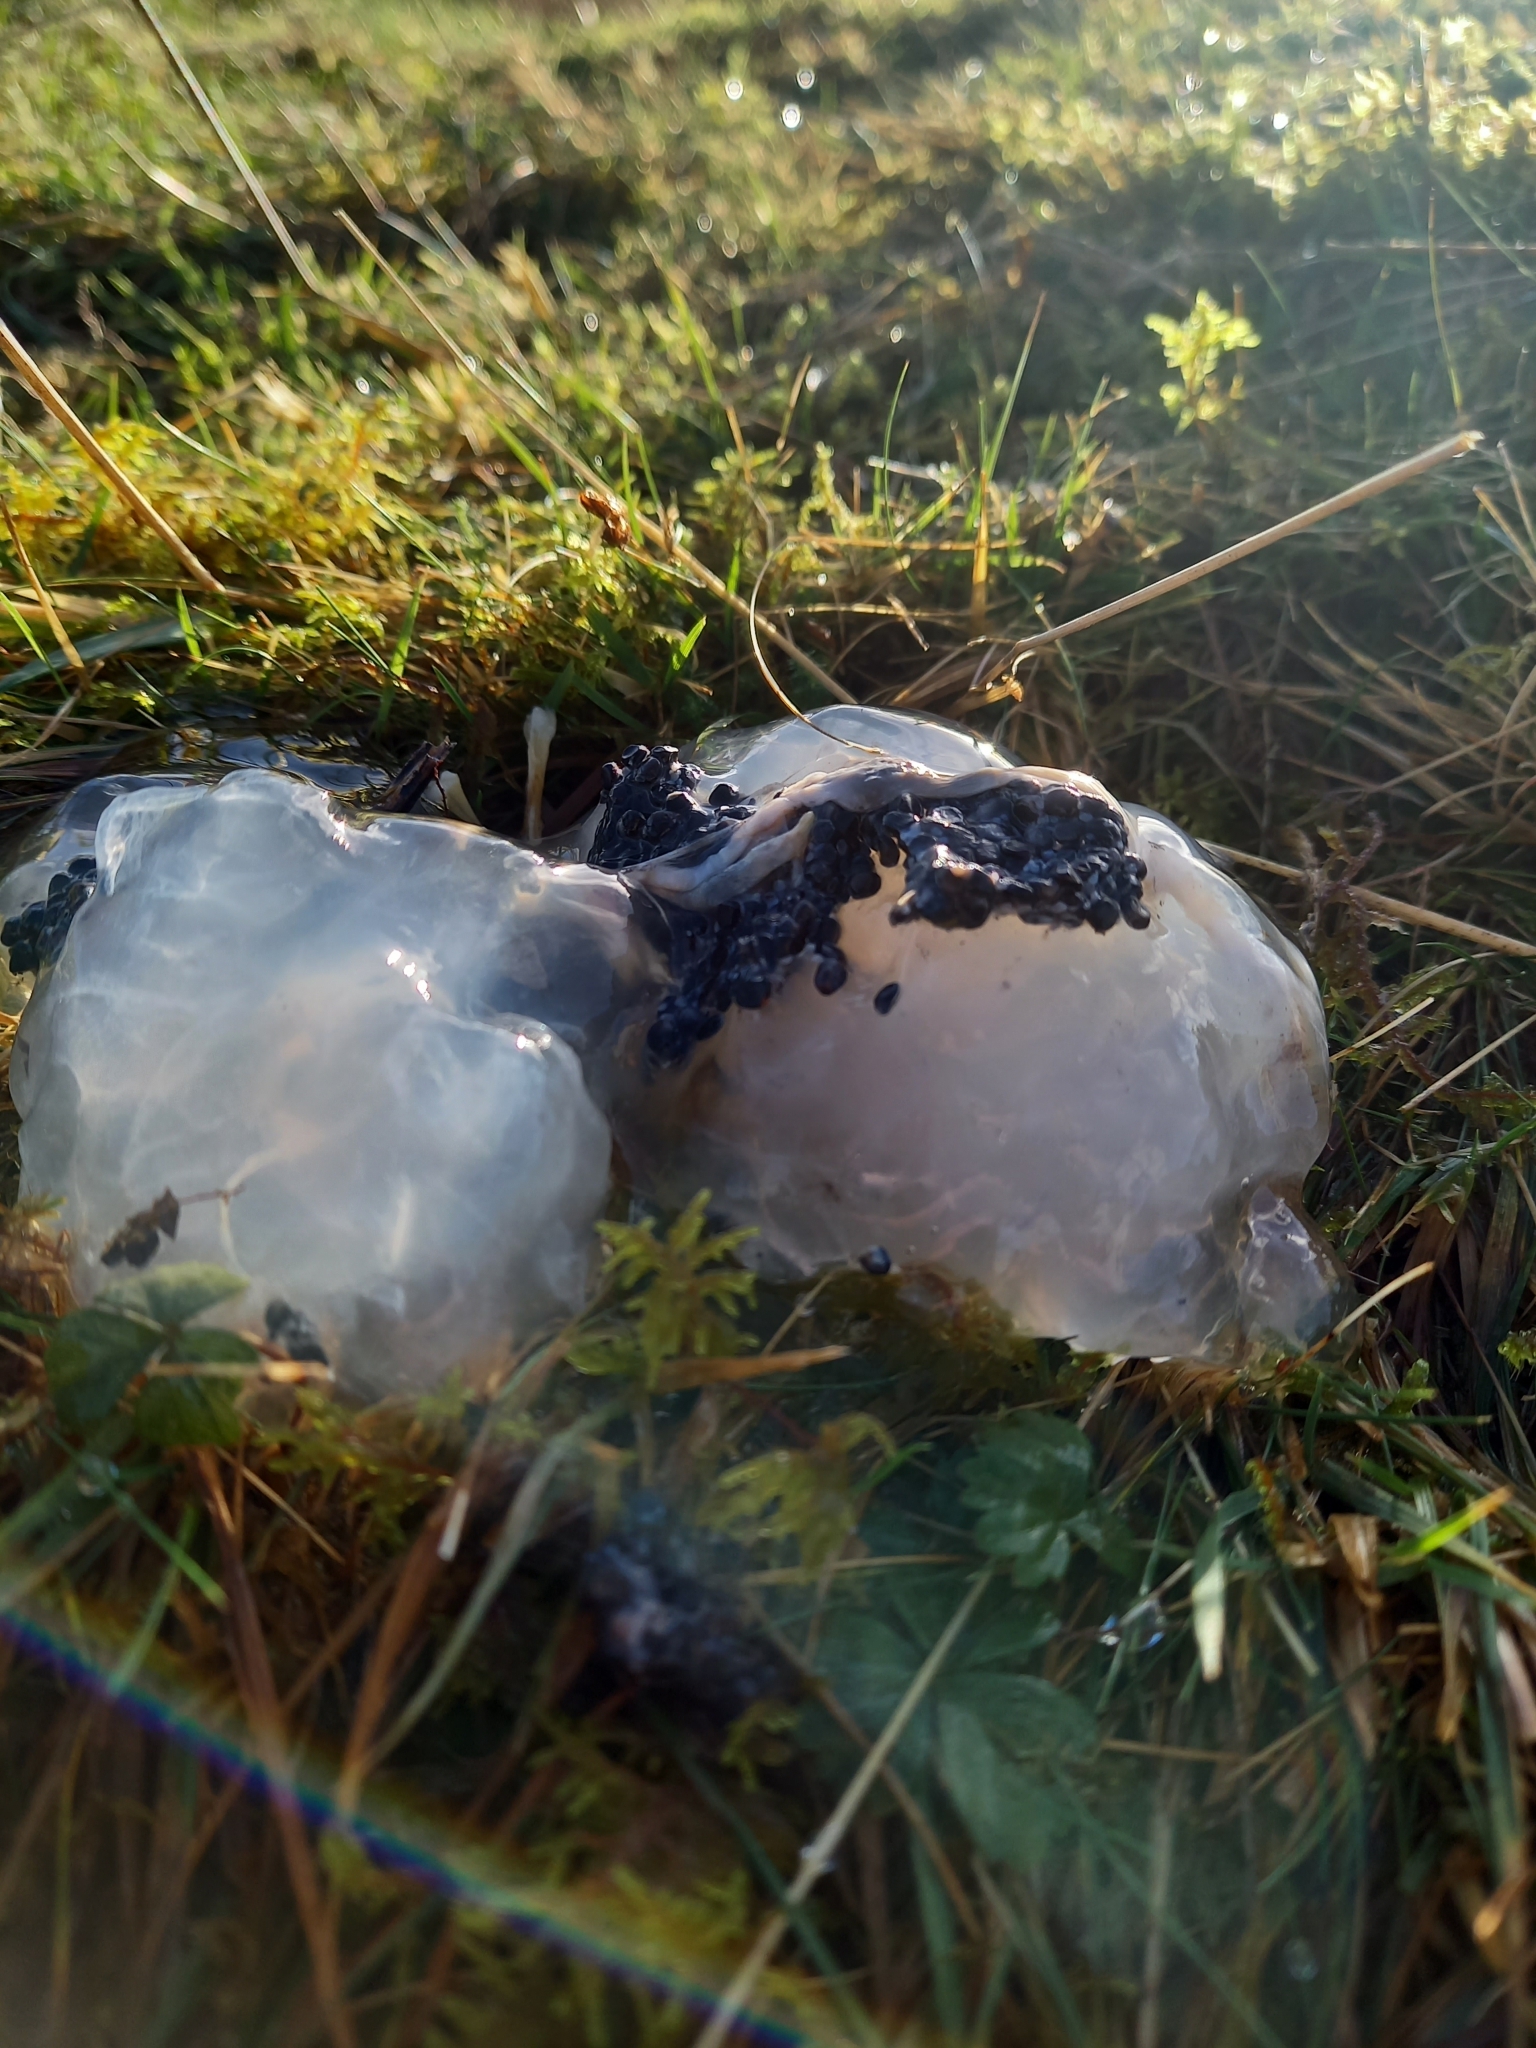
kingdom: Animalia
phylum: Chordata
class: Amphibia
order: Anura
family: Ranidae
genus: Rana
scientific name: Rana temporaria
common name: Common frog
